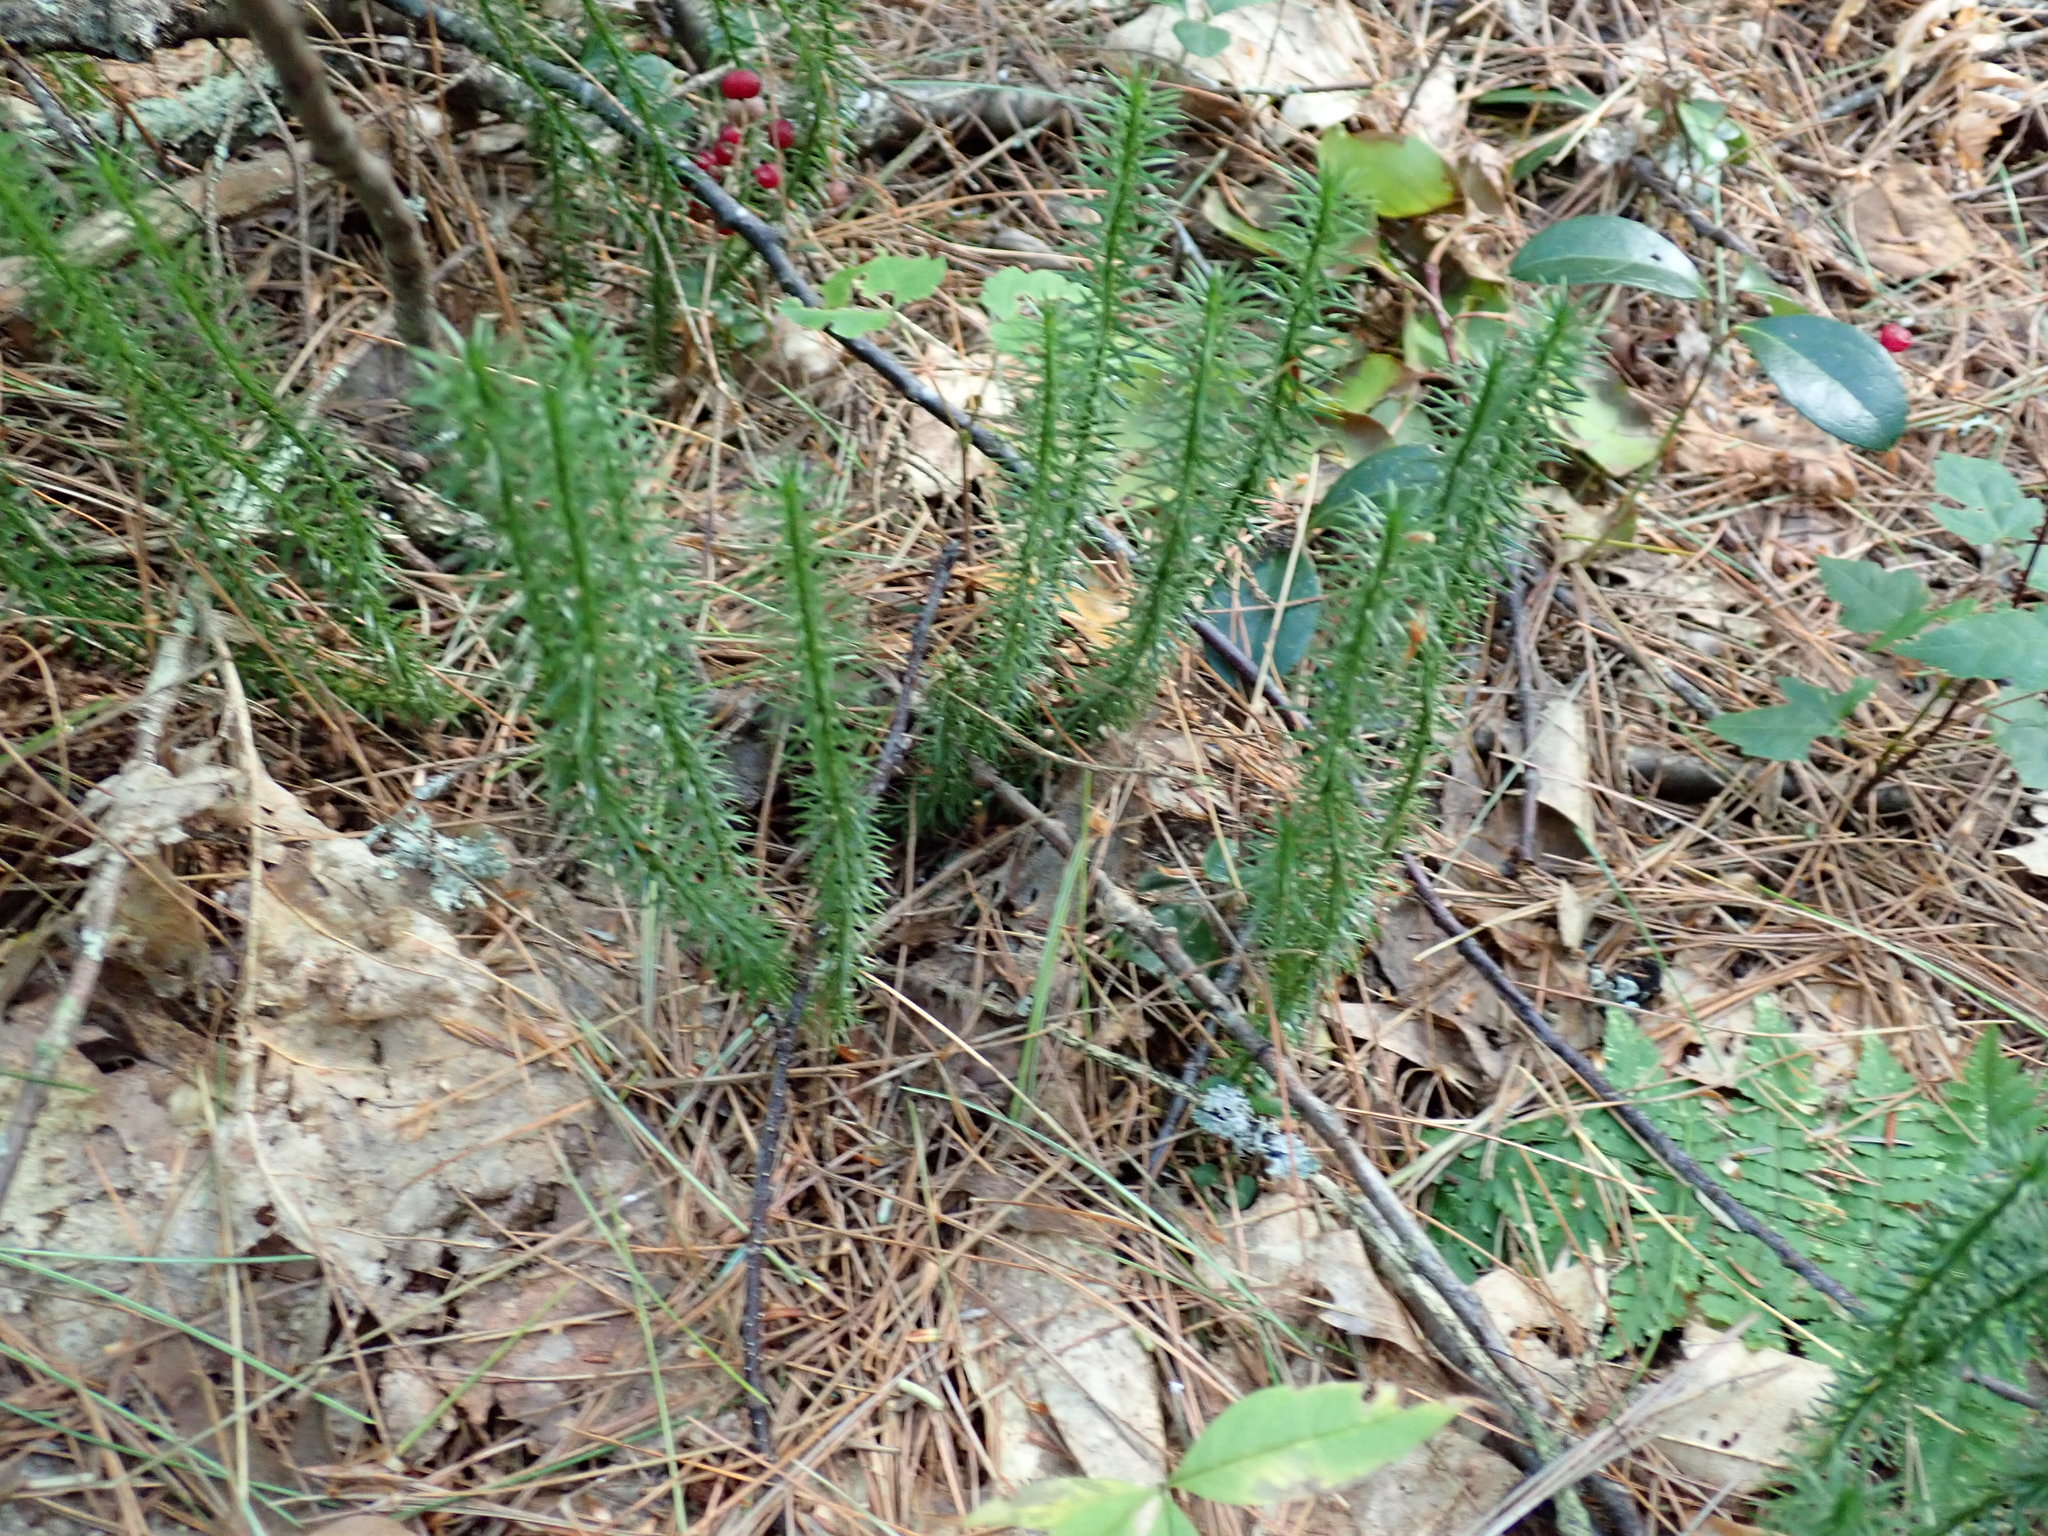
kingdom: Plantae
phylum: Tracheophyta
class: Lycopodiopsida
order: Lycopodiales
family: Lycopodiaceae
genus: Spinulum
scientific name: Spinulum annotinum
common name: Interrupted club-moss
